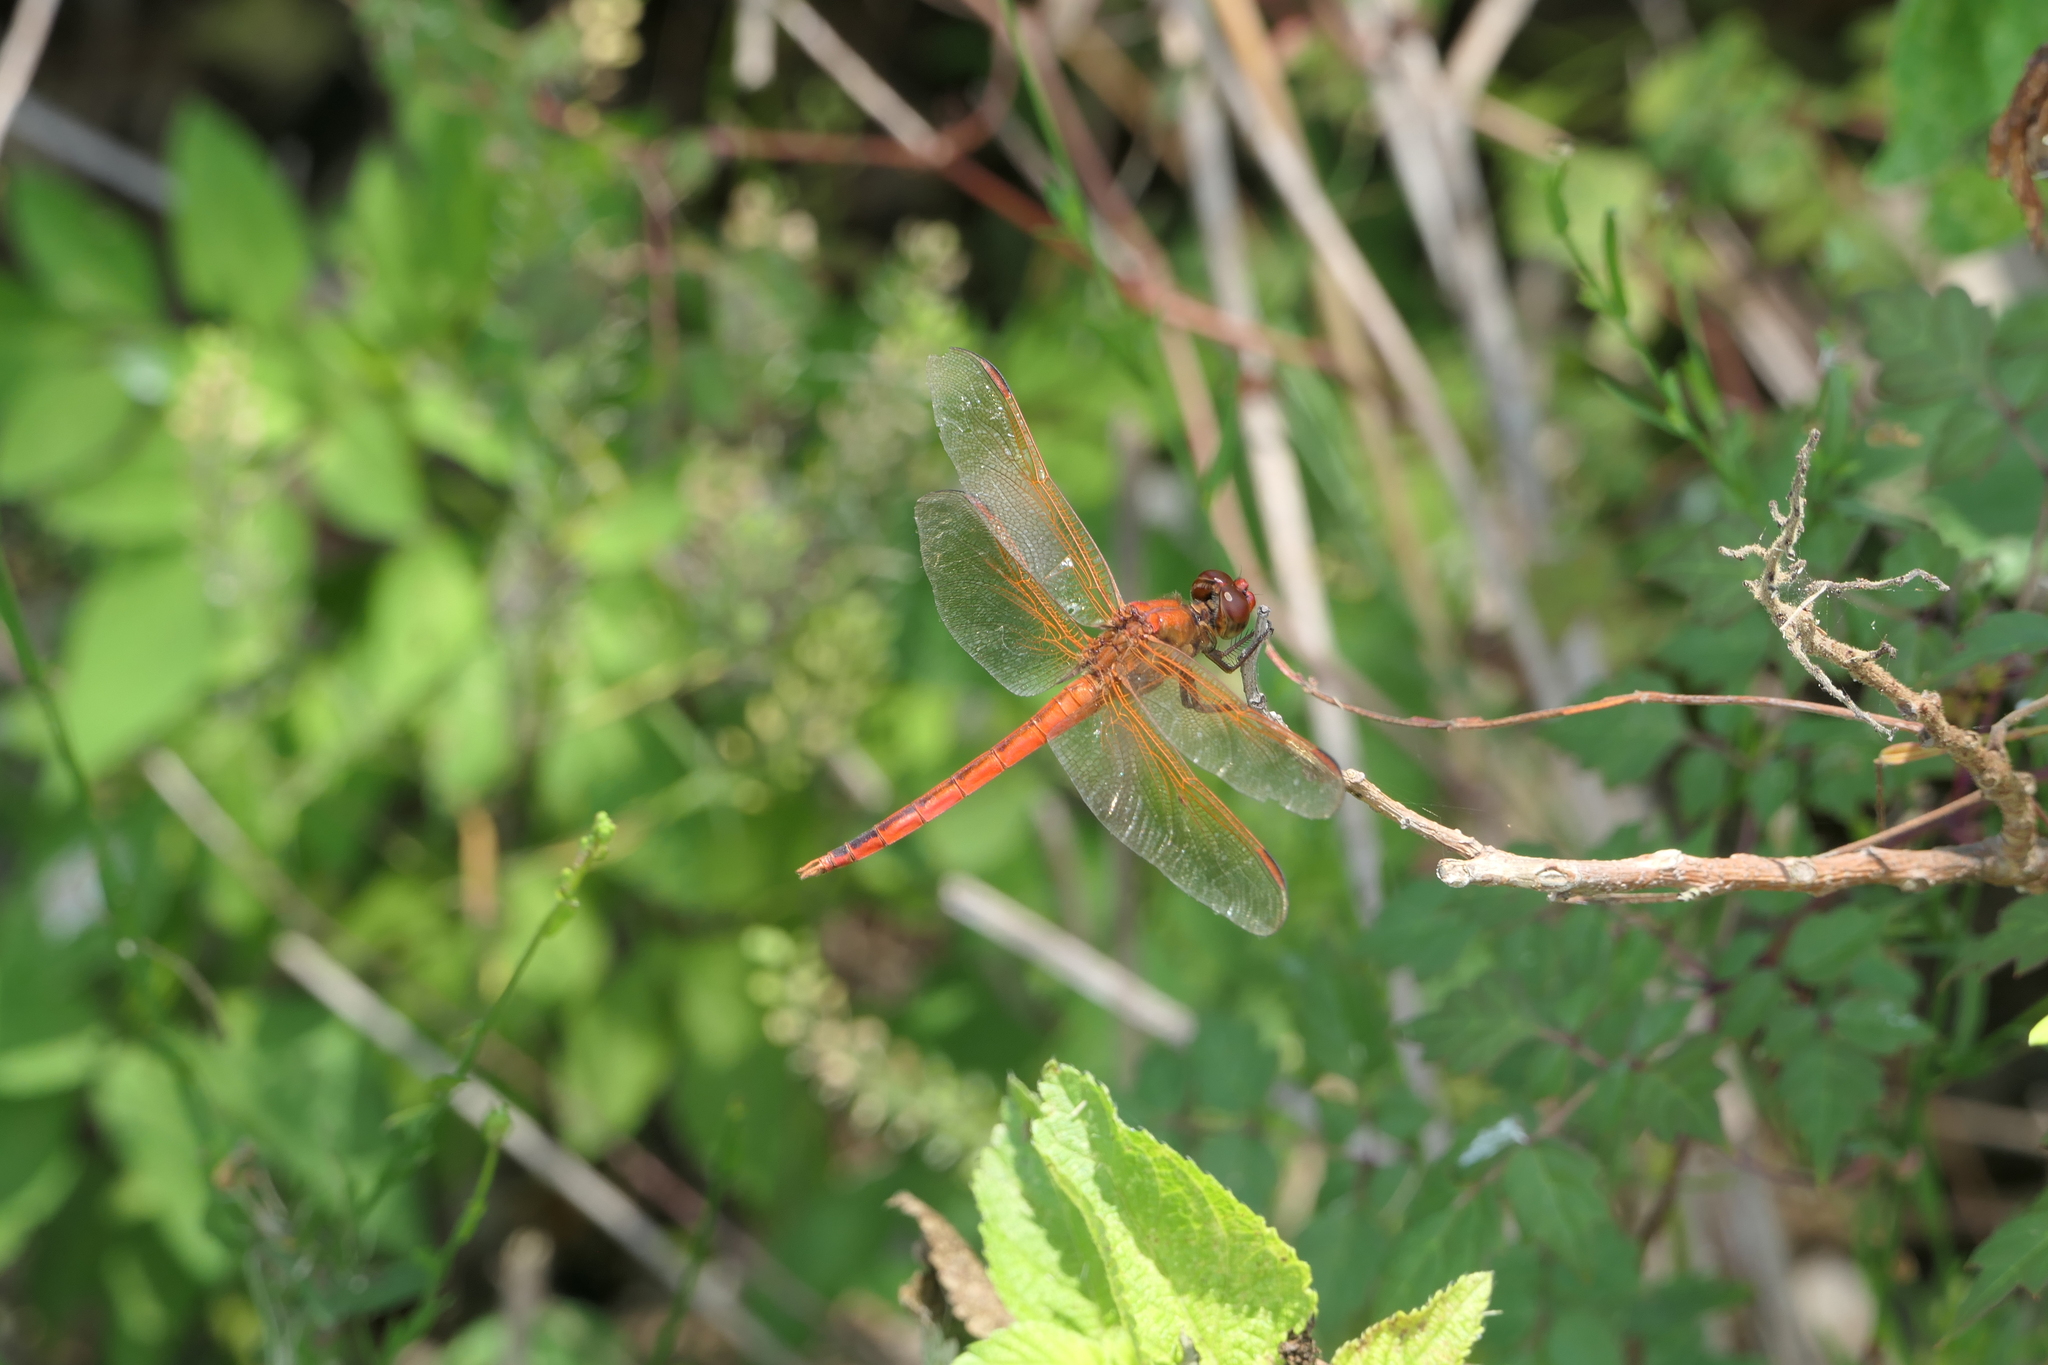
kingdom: Animalia
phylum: Arthropoda
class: Insecta
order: Odonata
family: Libellulidae
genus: Libellula
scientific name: Libellula needhami
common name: Needham's skimmer
